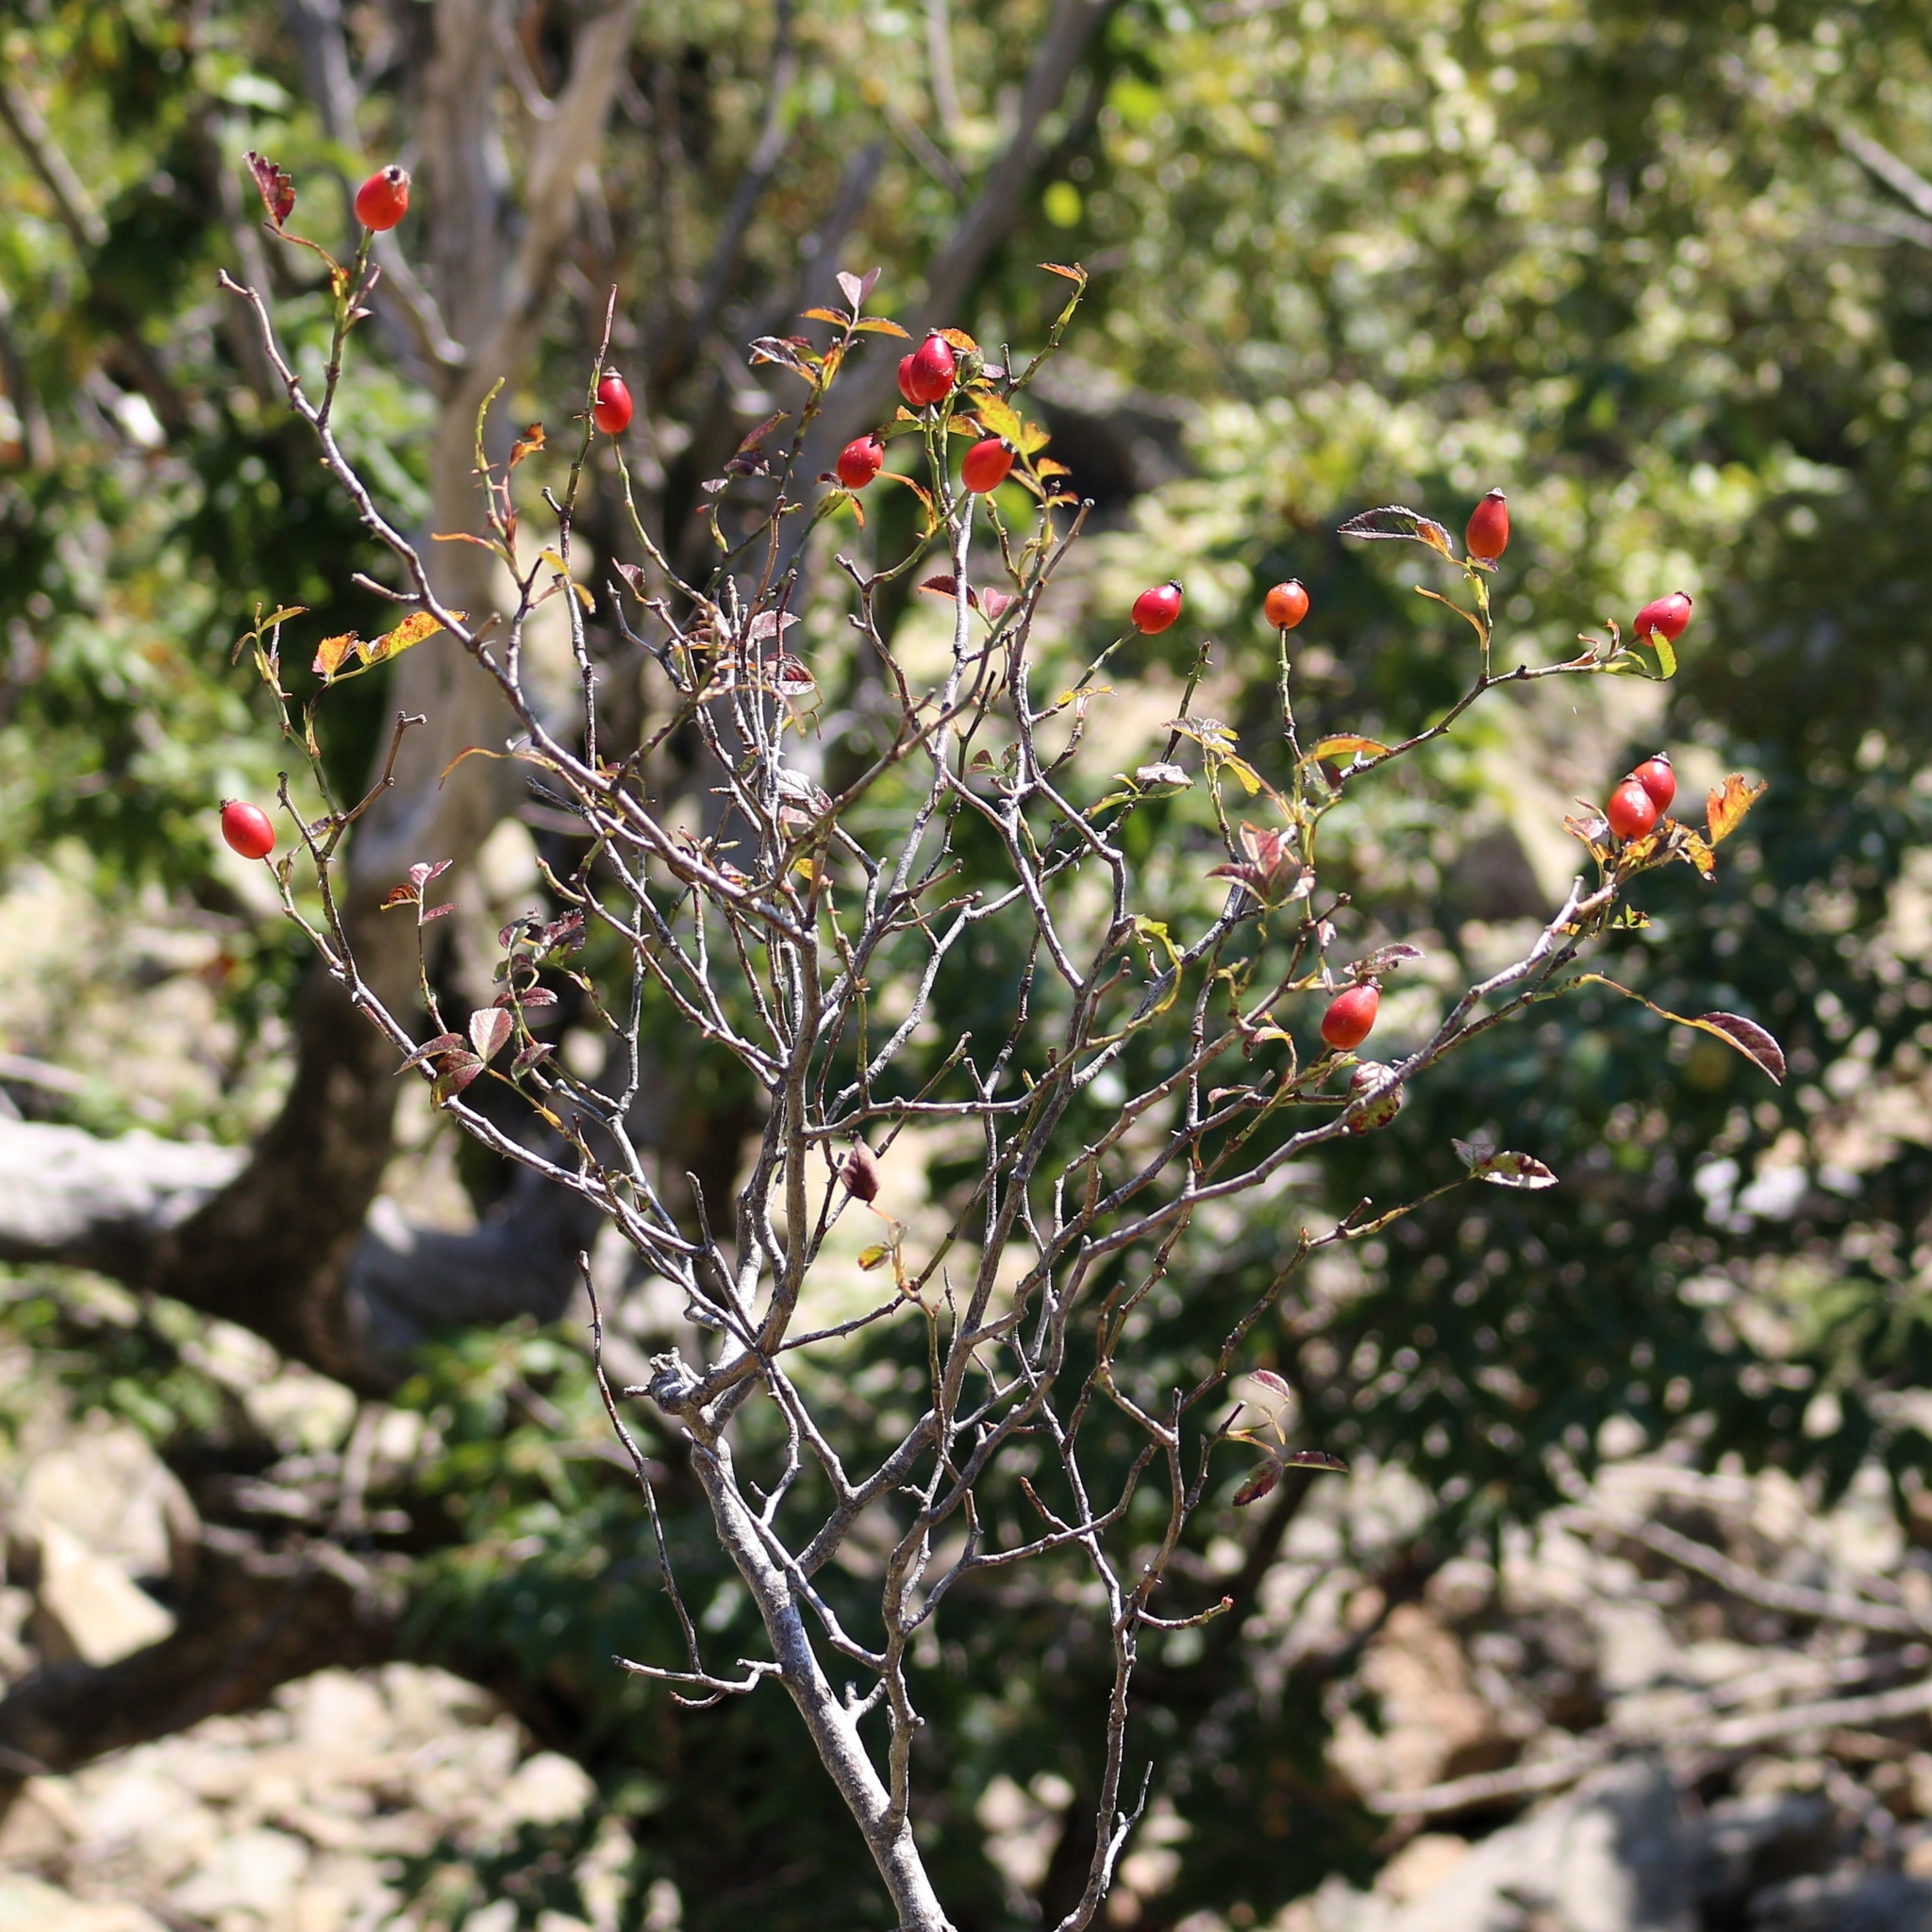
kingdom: Plantae
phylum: Tracheophyta
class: Magnoliopsida
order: Rosales
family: Rosaceae
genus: Rosa
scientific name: Rosa
